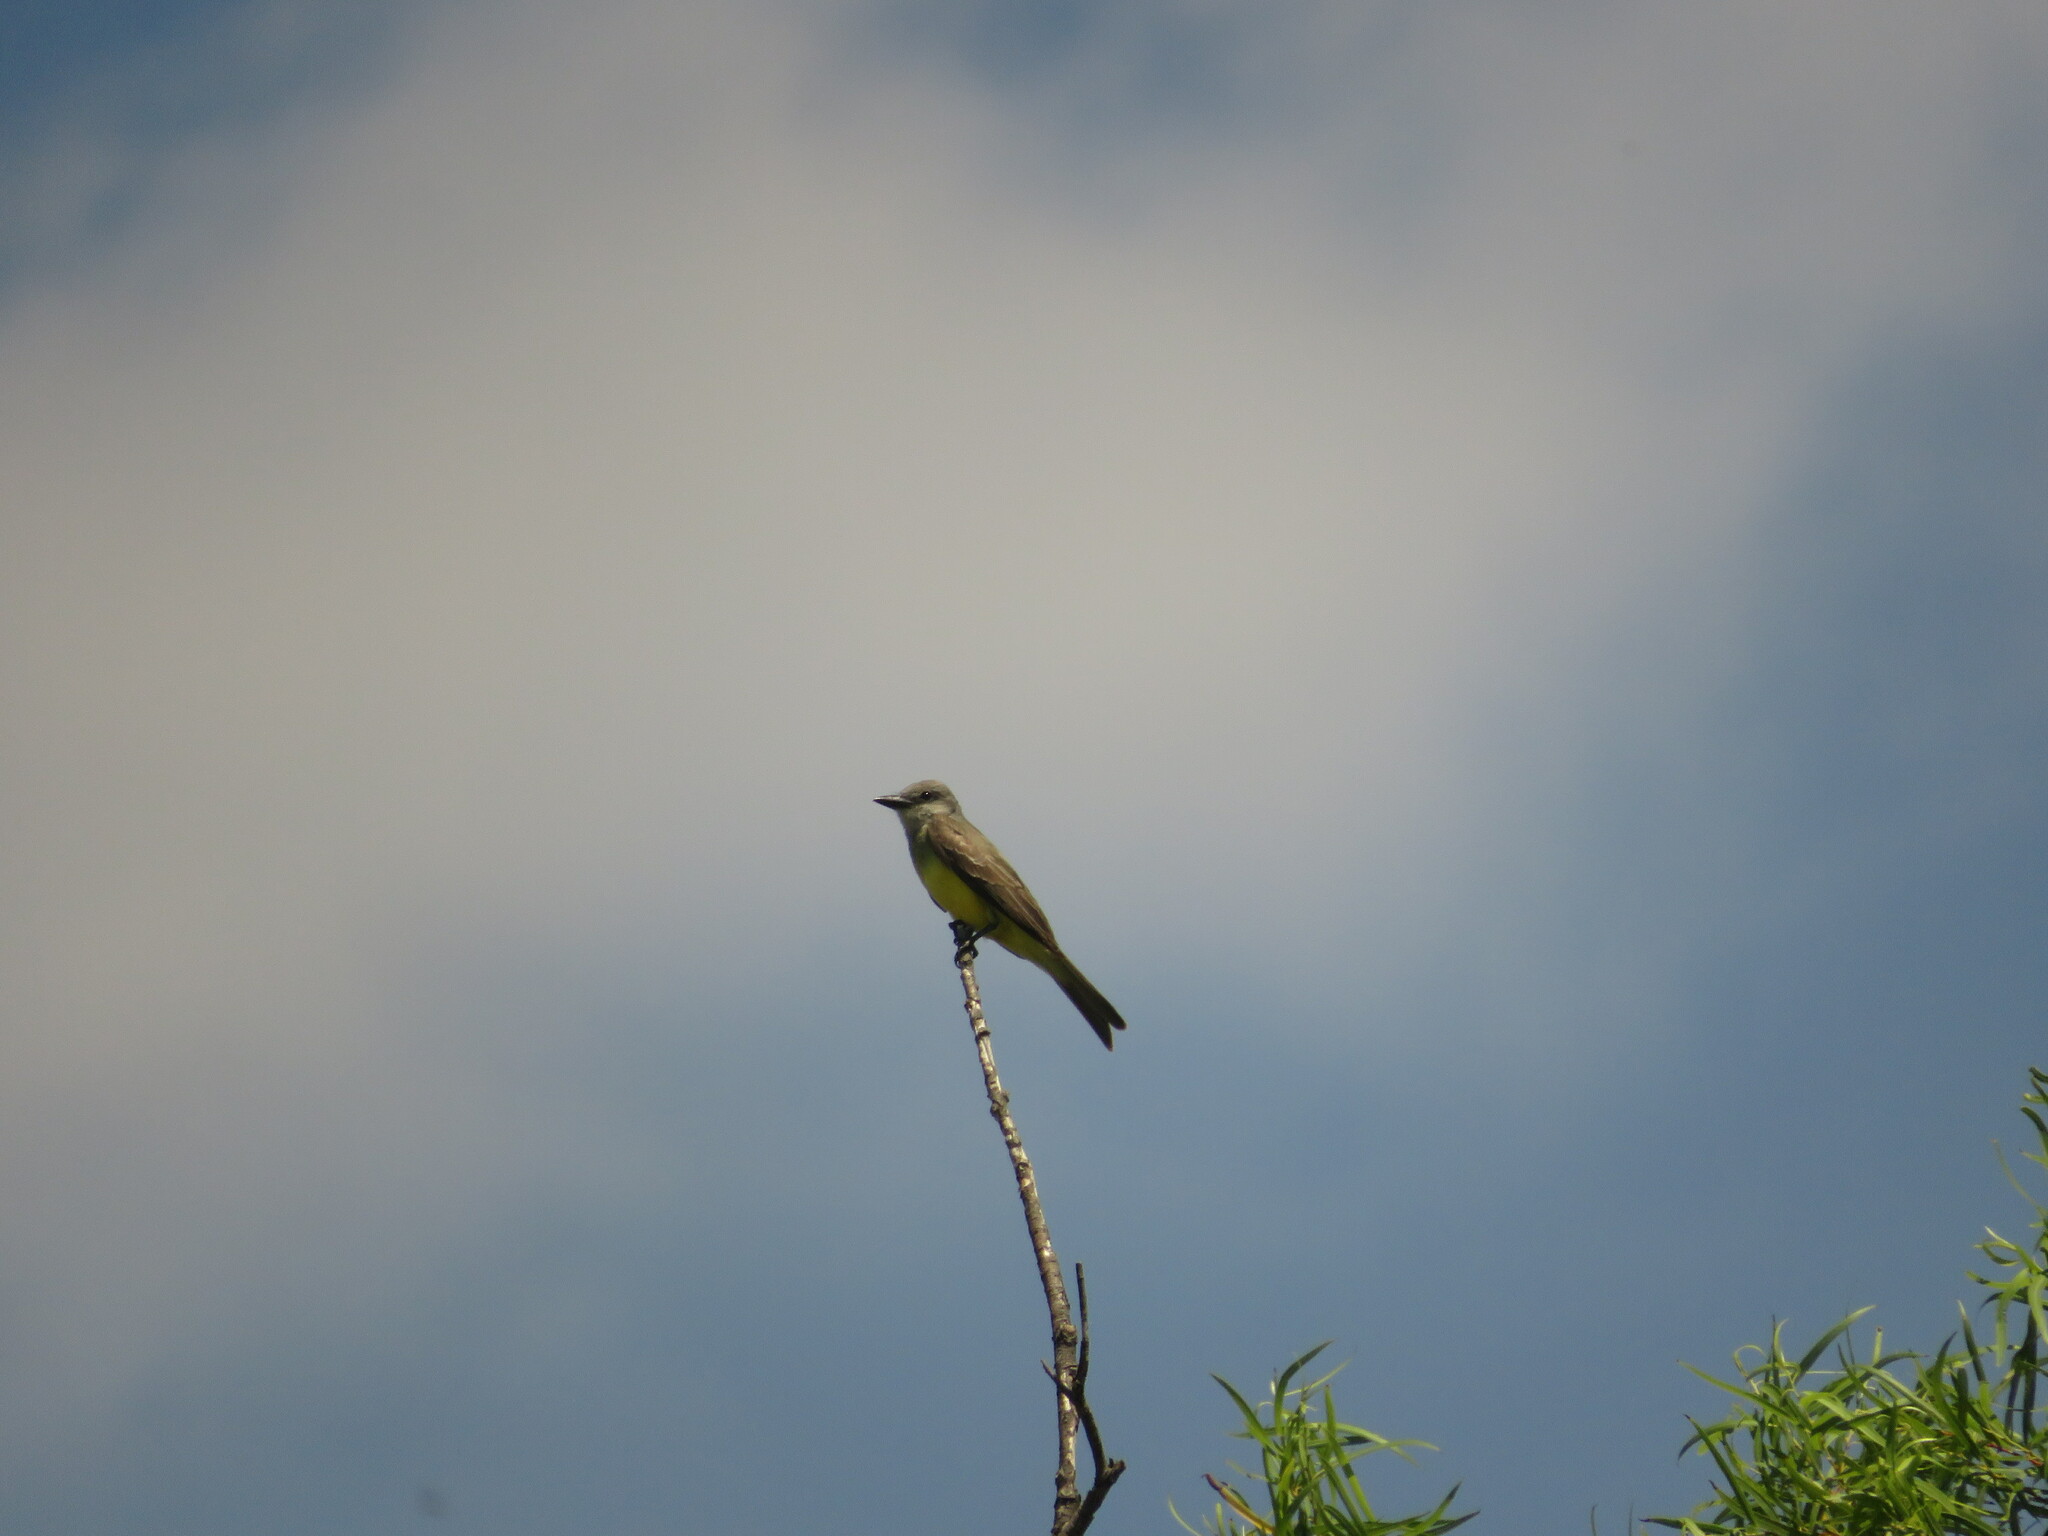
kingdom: Animalia
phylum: Chordata
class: Aves
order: Passeriformes
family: Tyrannidae
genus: Tyrannus
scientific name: Tyrannus melancholicus
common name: Tropical kingbird
